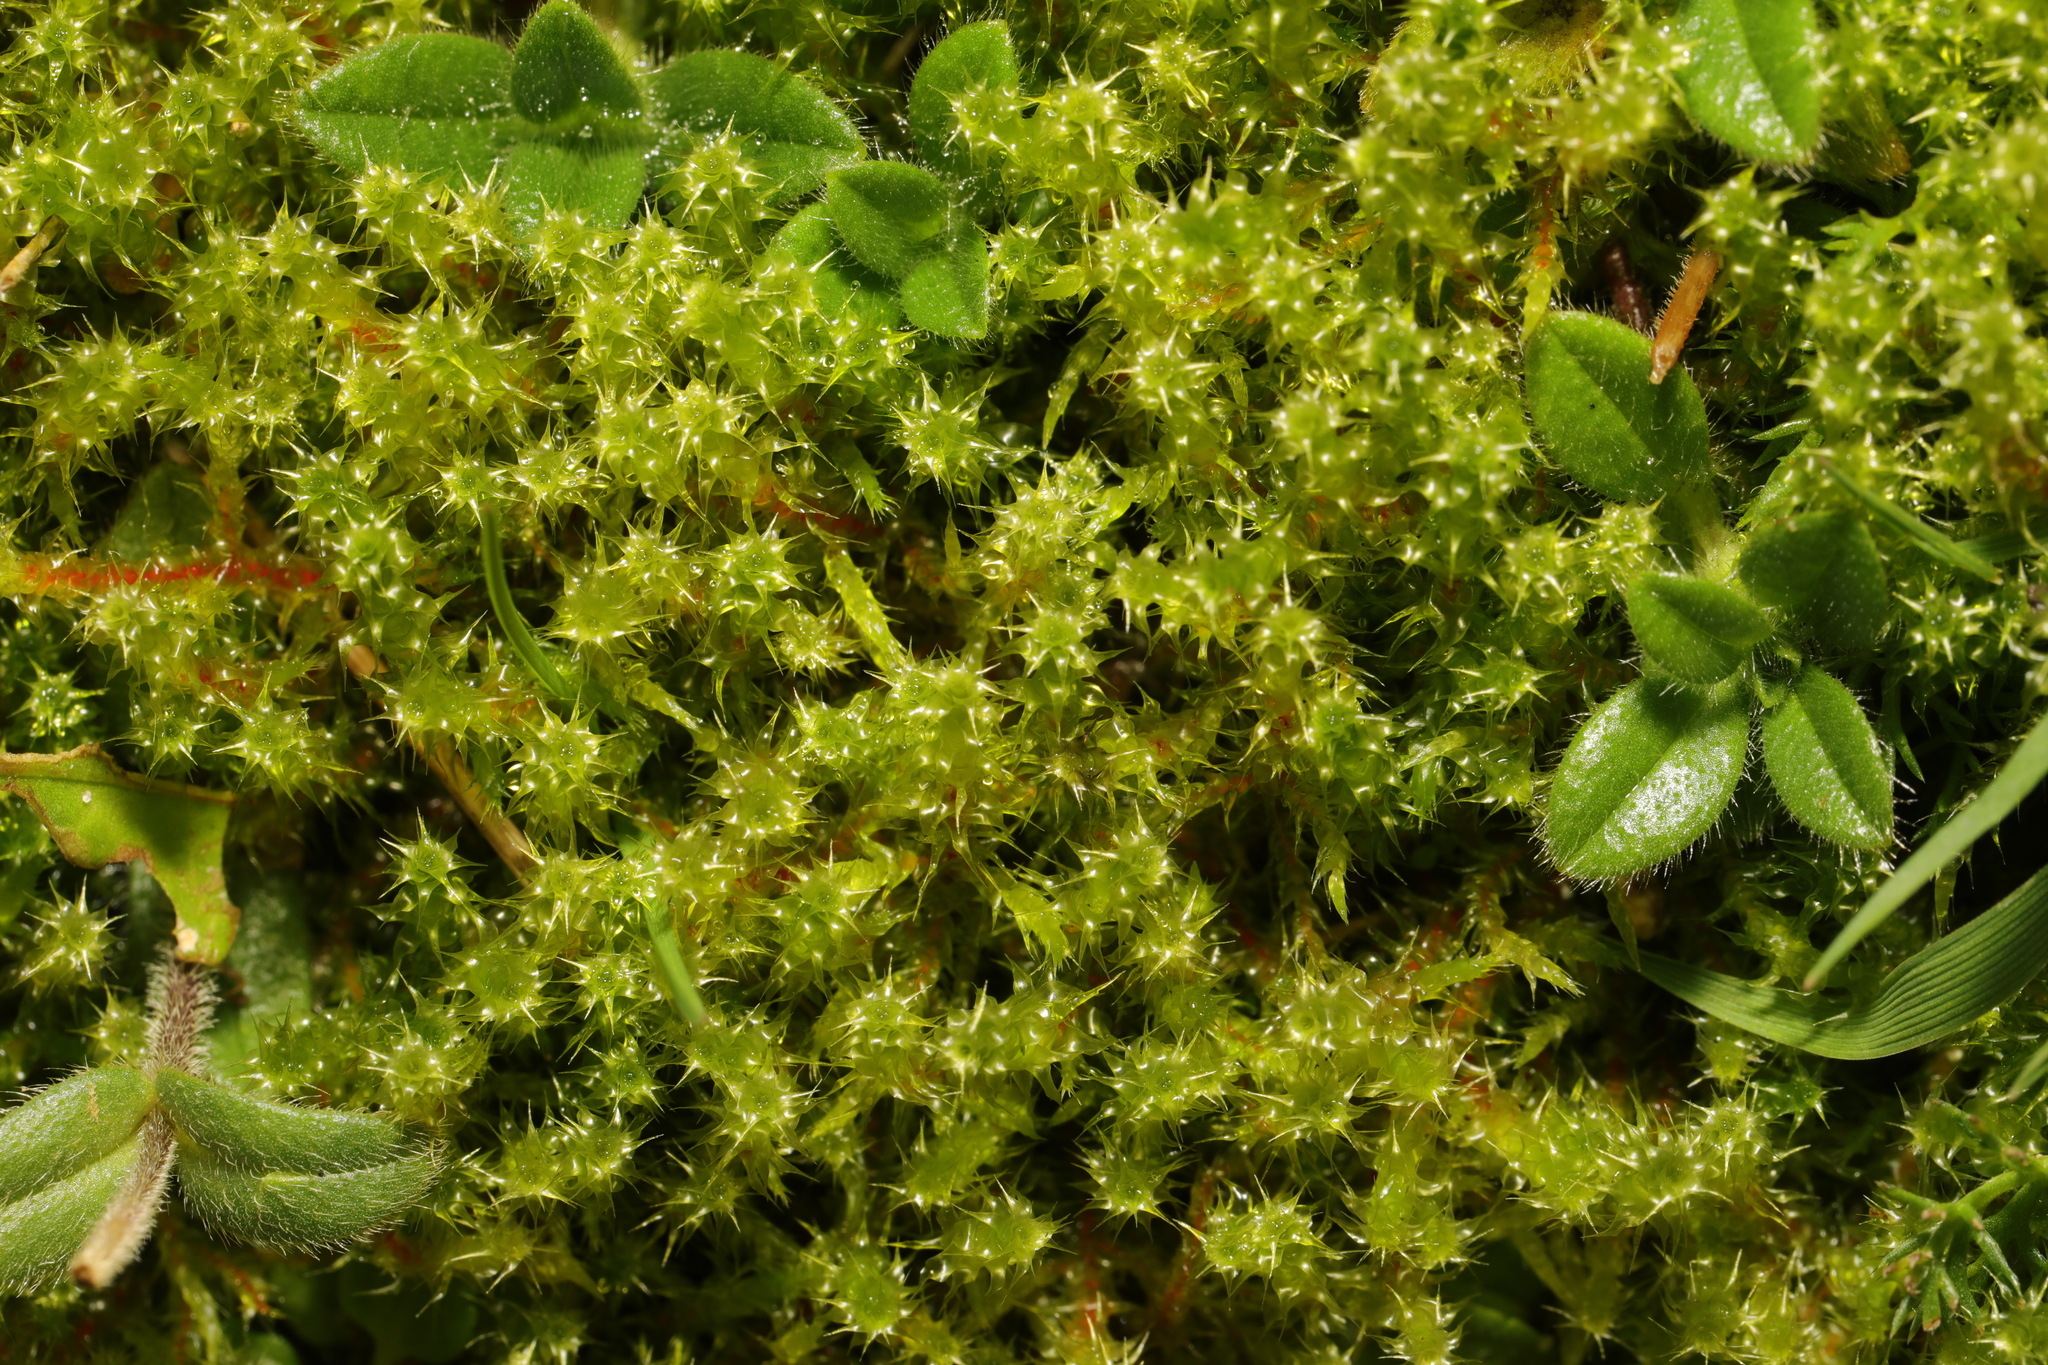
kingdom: Plantae
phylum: Bryophyta
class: Bryopsida
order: Hypnales
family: Hylocomiaceae
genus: Rhytidiadelphus
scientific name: Rhytidiadelphus squarrosus
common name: Springy turf-moss
